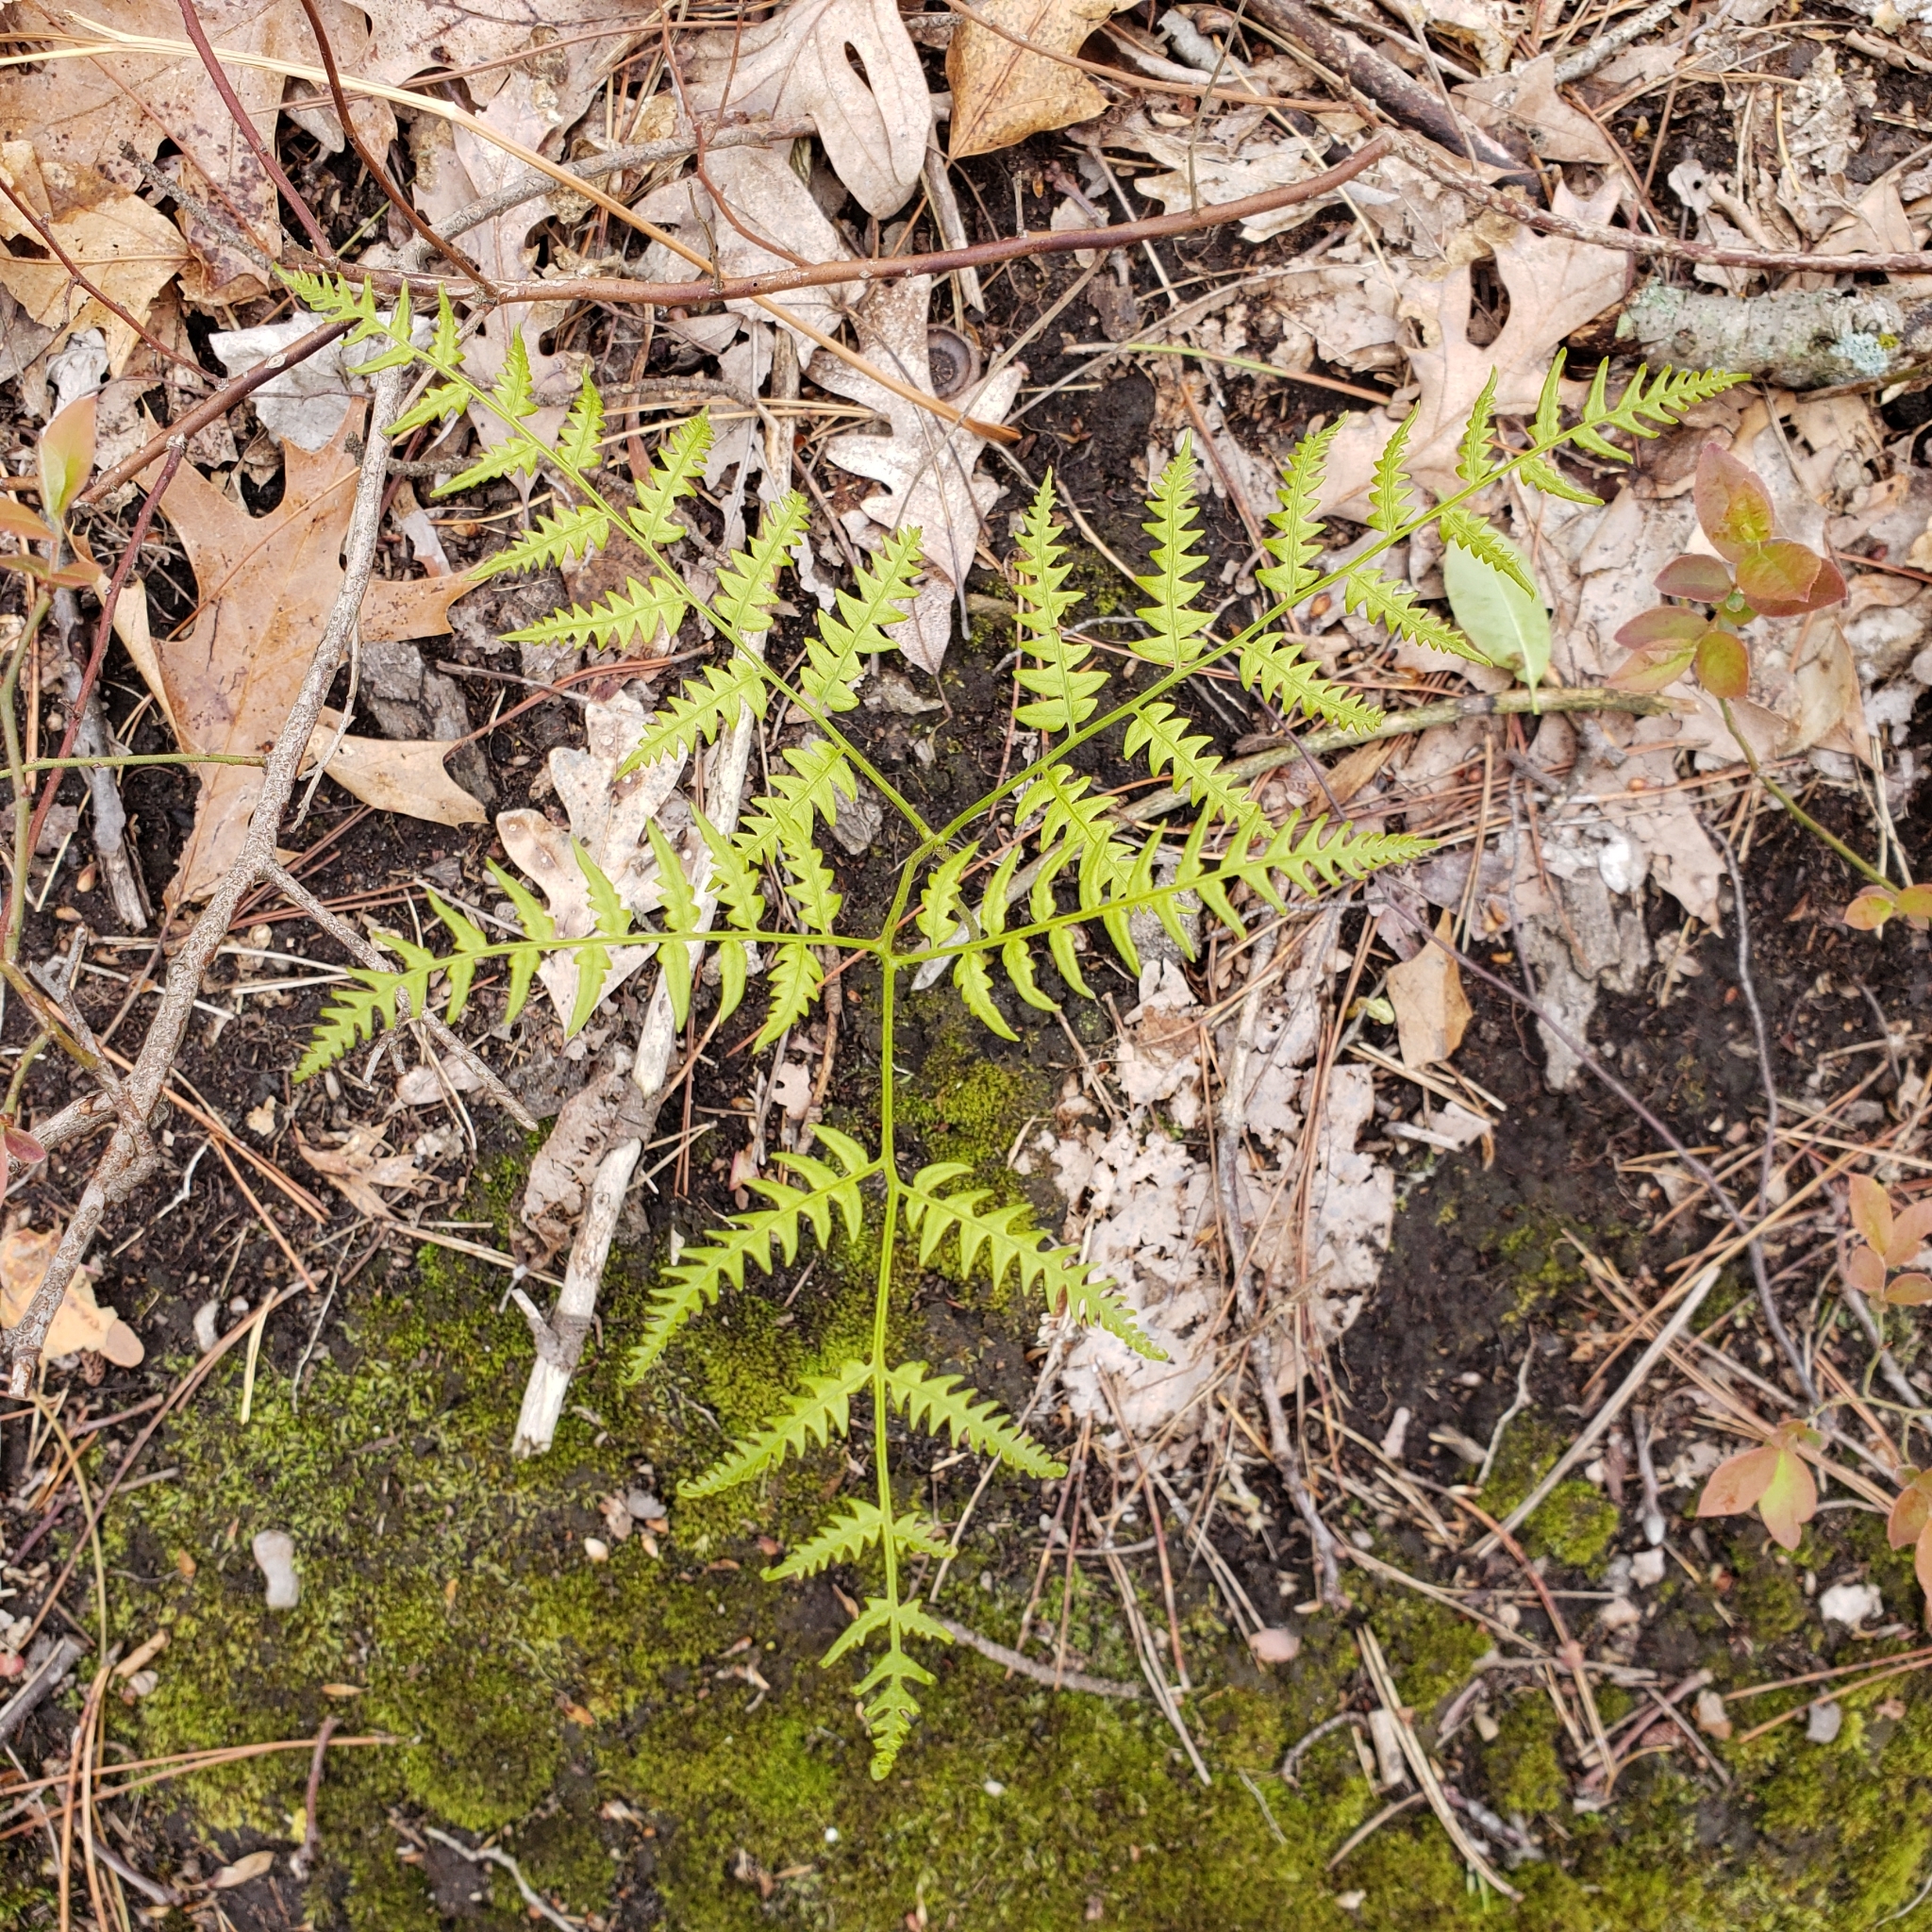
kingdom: Plantae
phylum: Tracheophyta
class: Polypodiopsida
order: Polypodiales
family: Dennstaedtiaceae
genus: Pteridium
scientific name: Pteridium aquilinum
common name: Bracken
